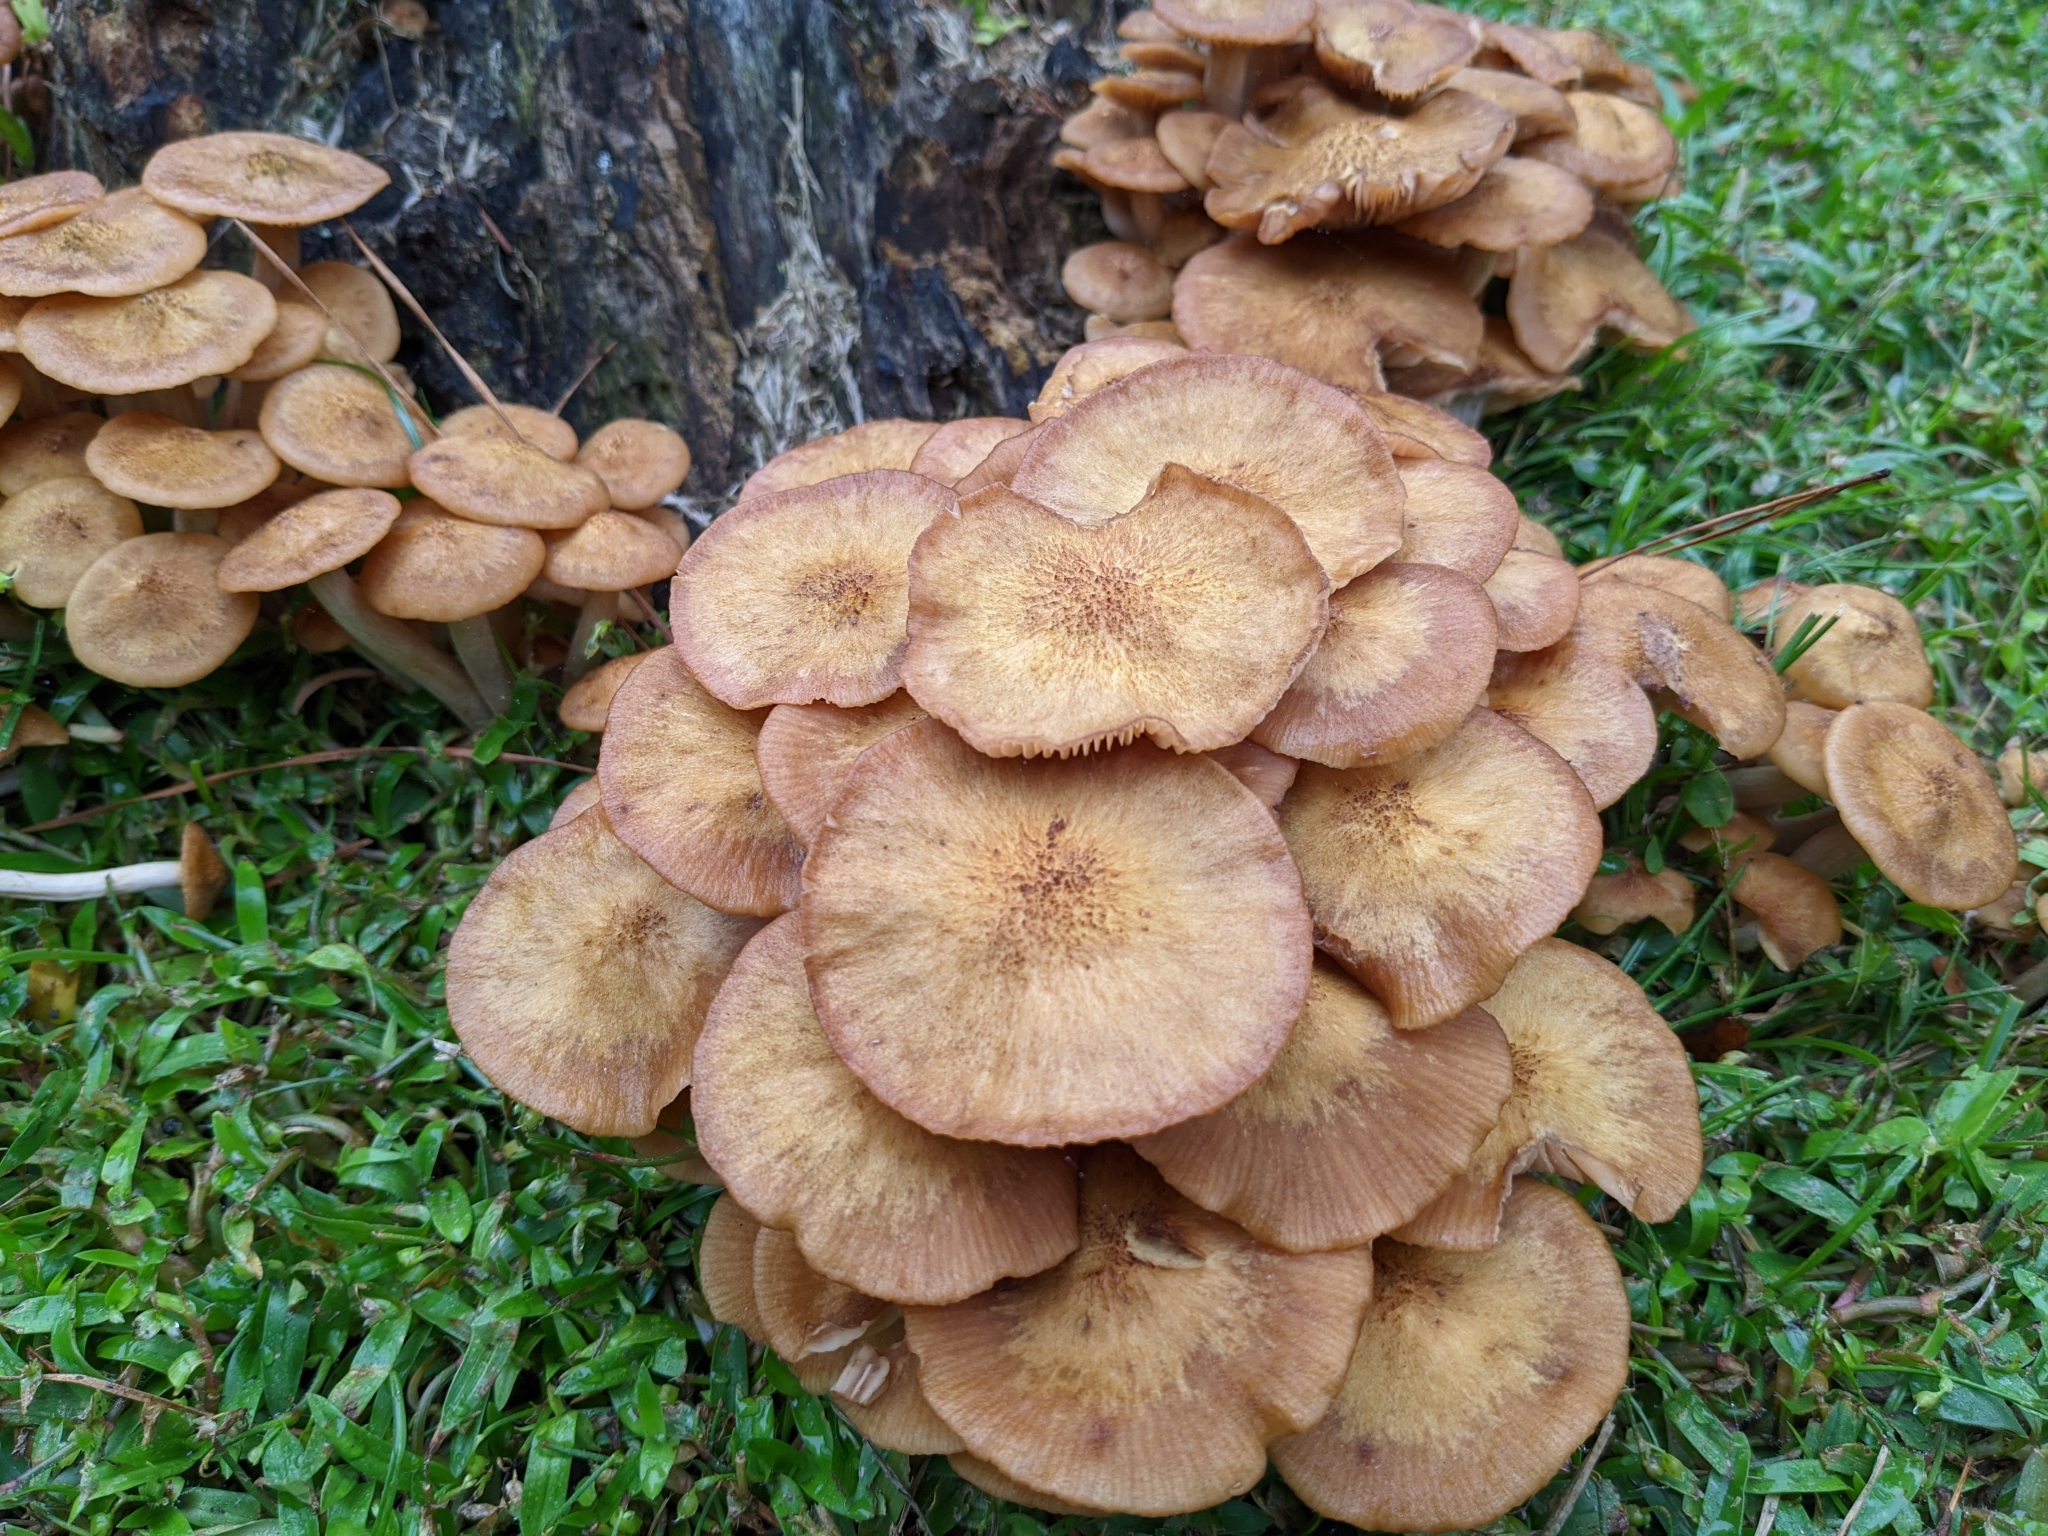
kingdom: Fungi
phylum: Basidiomycota
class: Agaricomycetes
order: Agaricales
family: Physalacriaceae
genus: Desarmillaria
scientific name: Desarmillaria caespitosa
